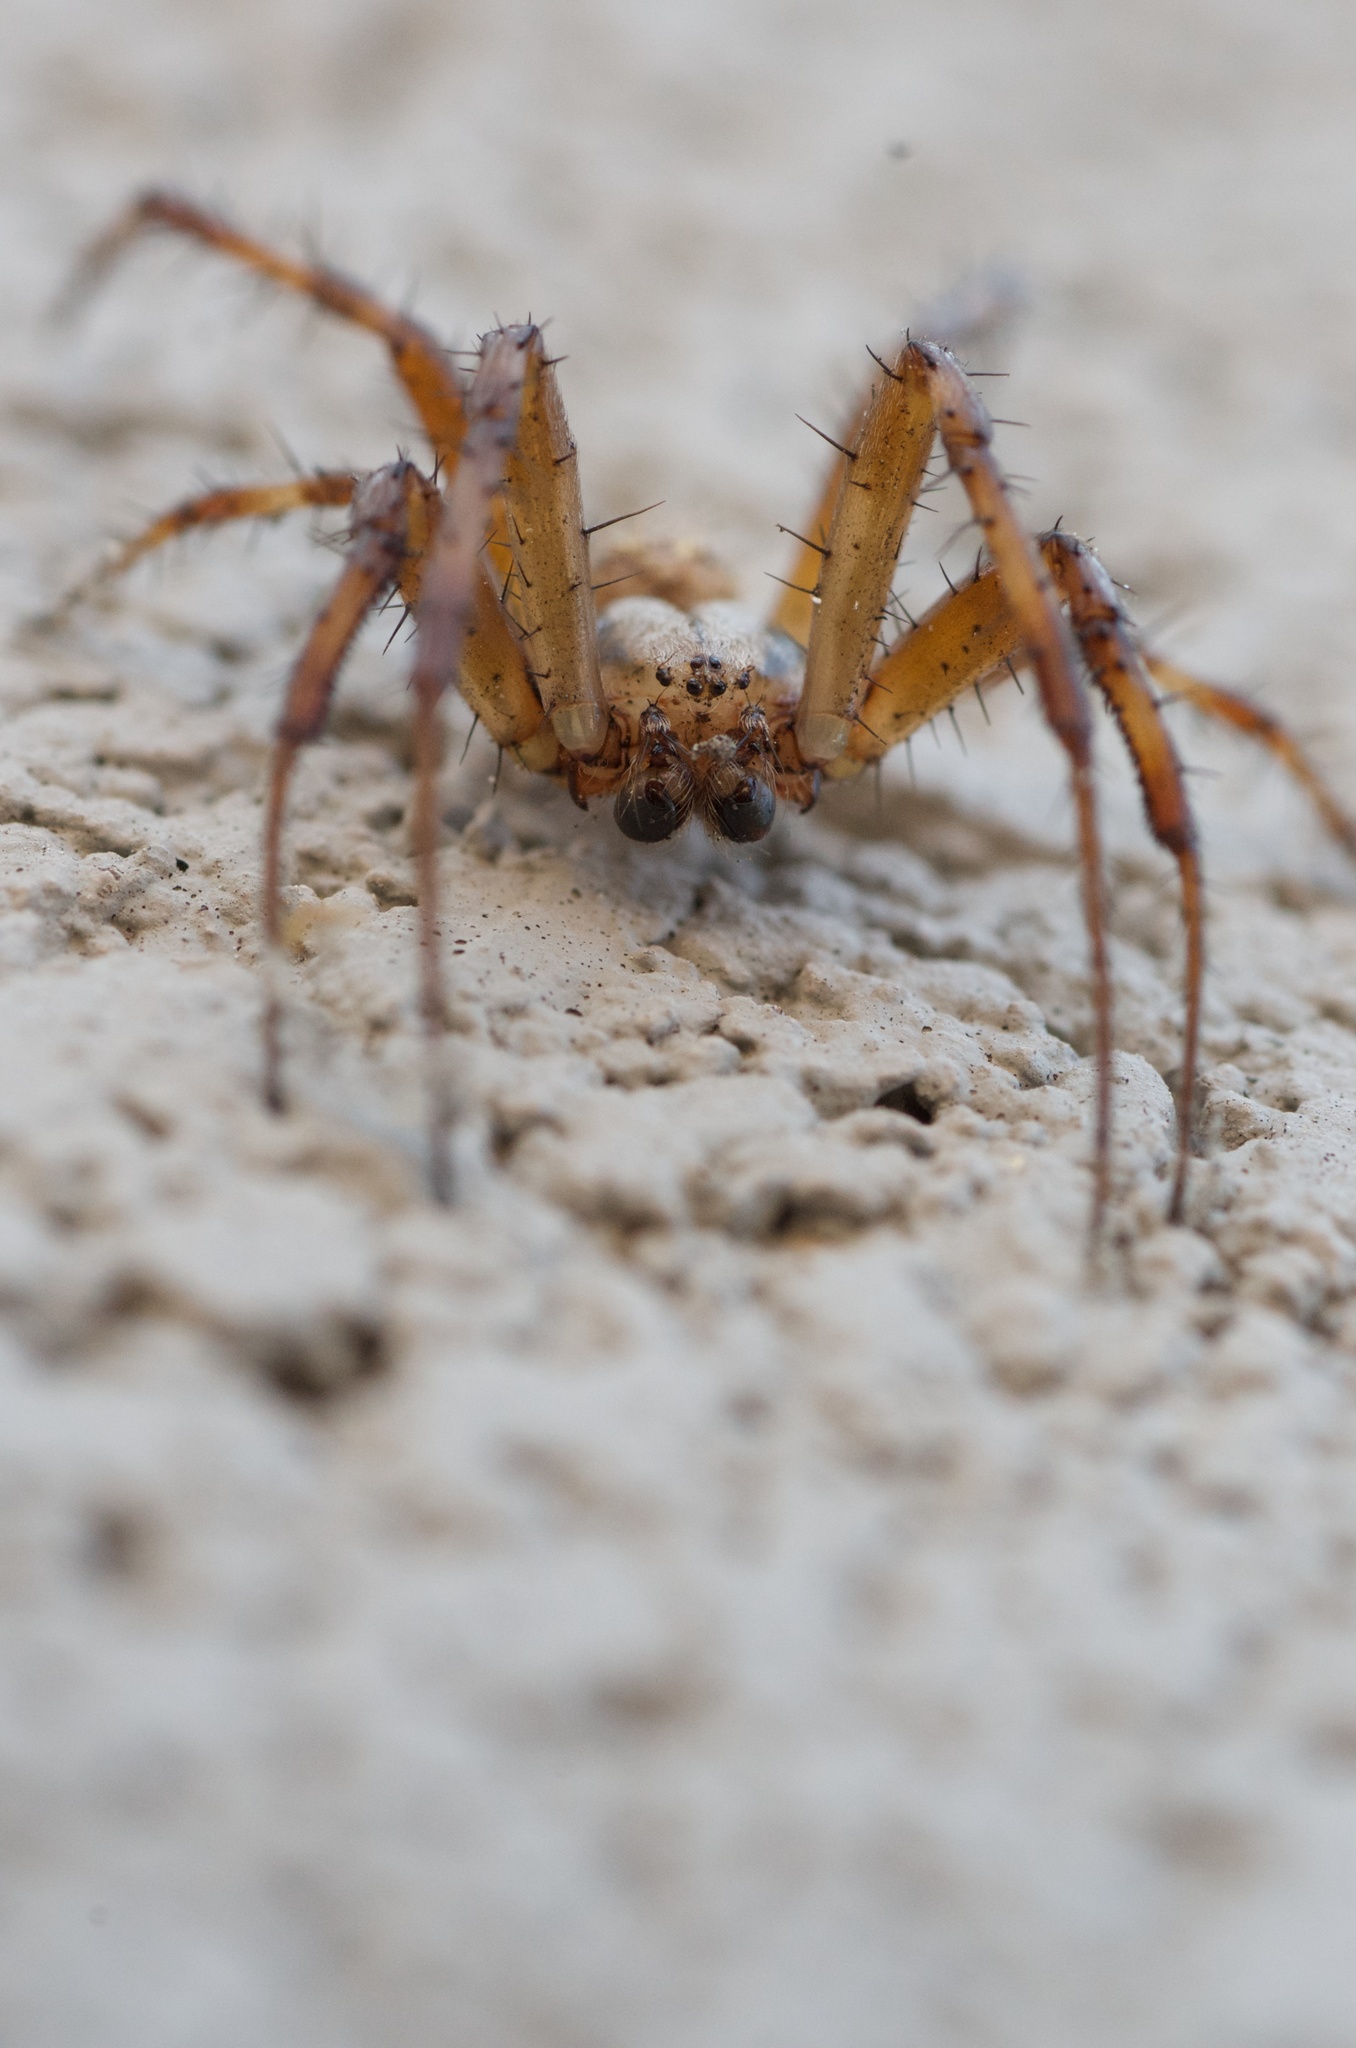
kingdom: Animalia
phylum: Arthropoda
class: Arachnida
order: Araneae
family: Araneidae
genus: Neoscona
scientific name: Neoscona oaxacensis
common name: Orb weavers
